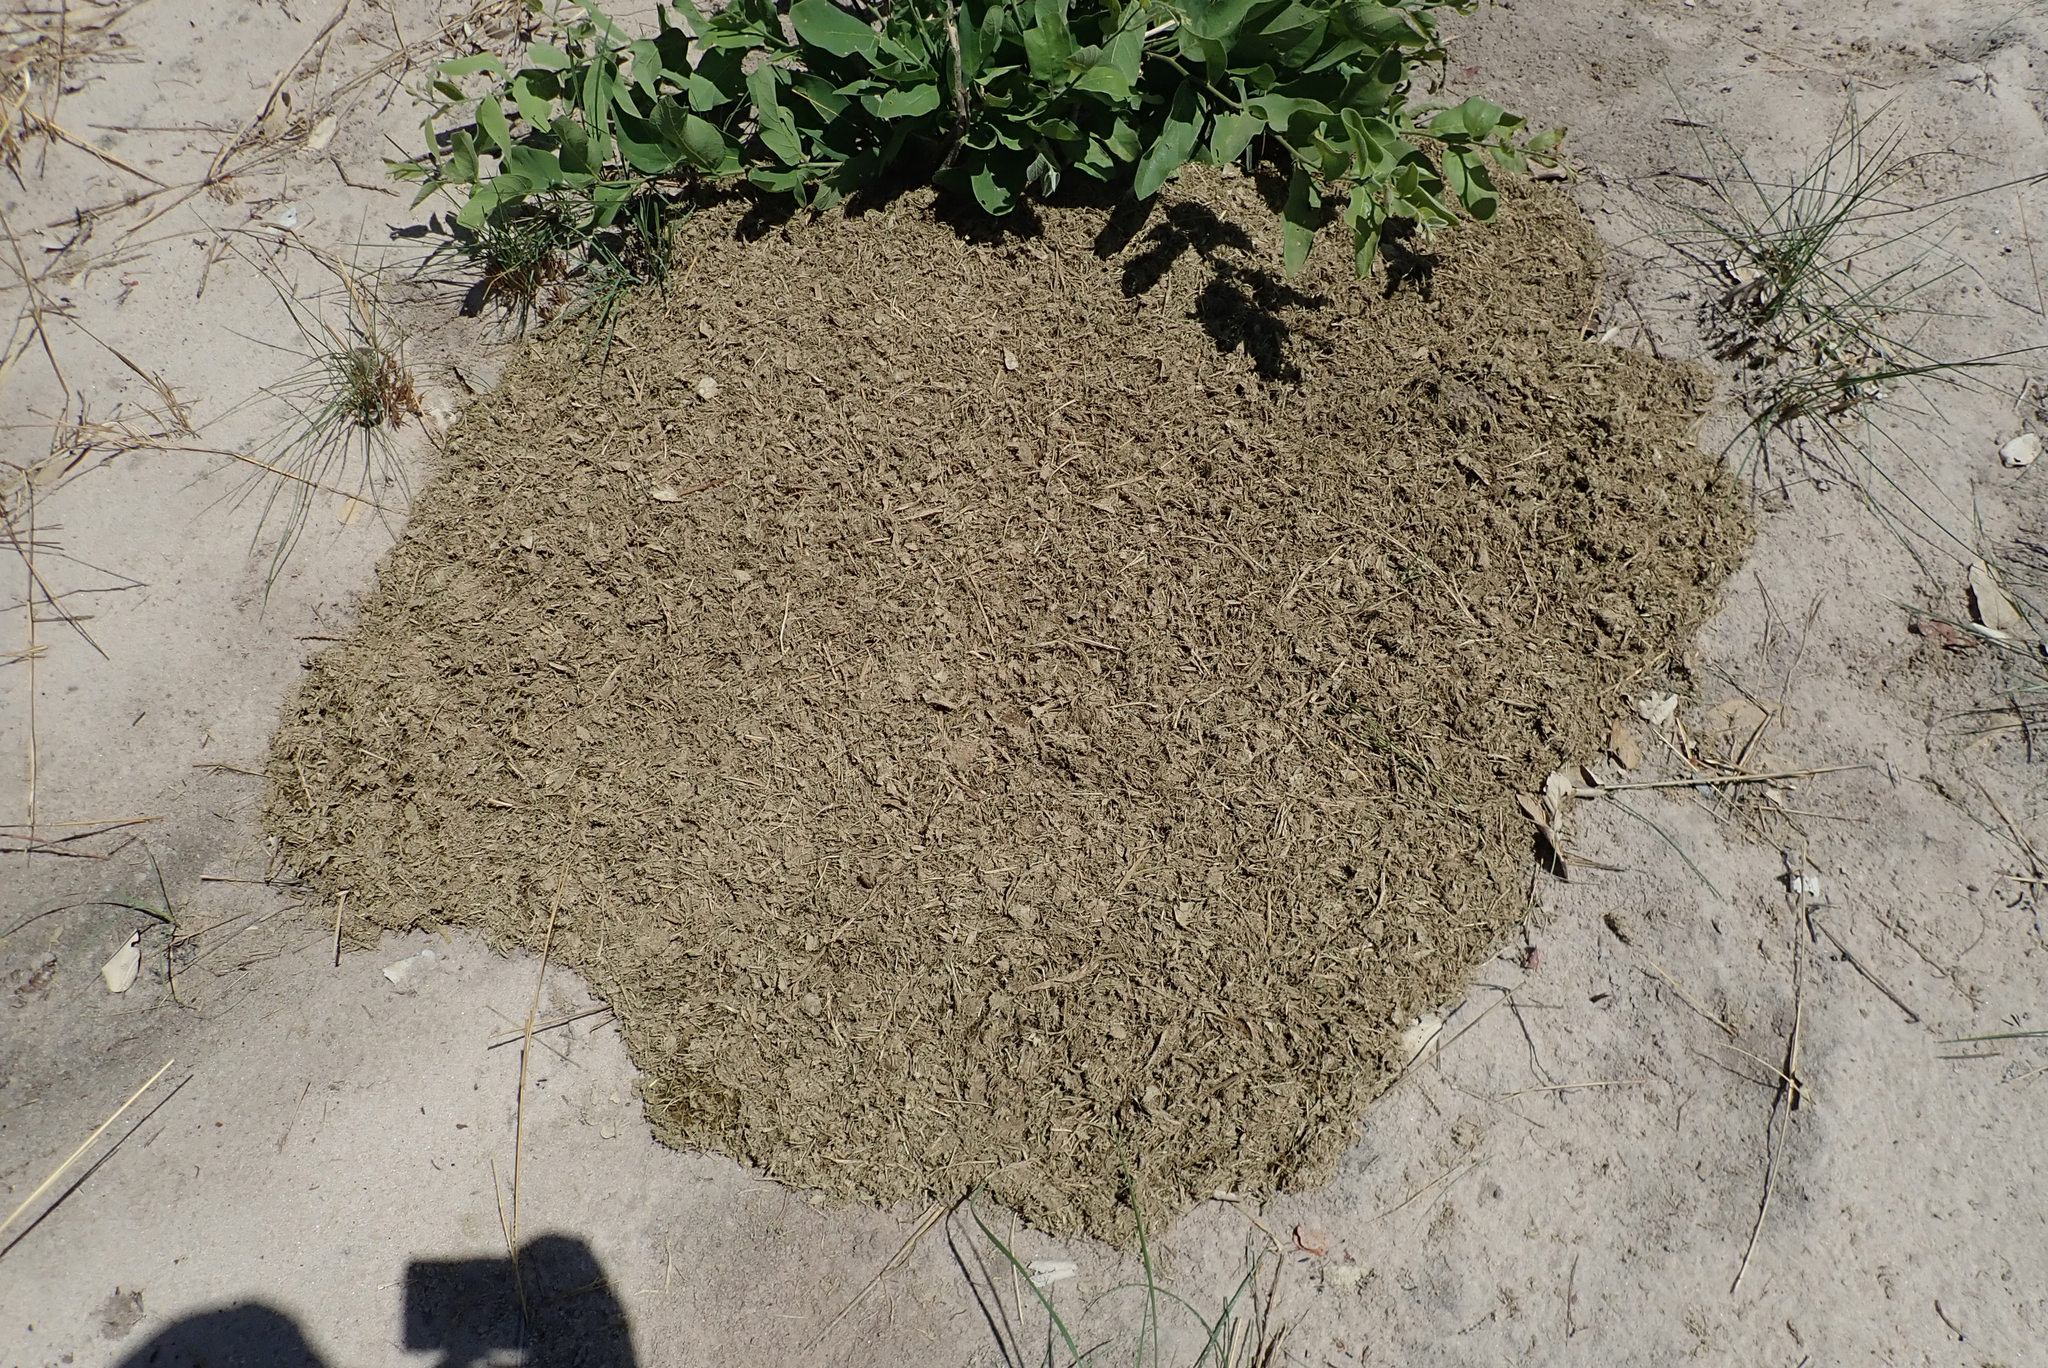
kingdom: Animalia
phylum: Chordata
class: Mammalia
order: Proboscidea
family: Elephantidae
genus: Loxodonta
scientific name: Loxodonta africana
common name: African elephant
